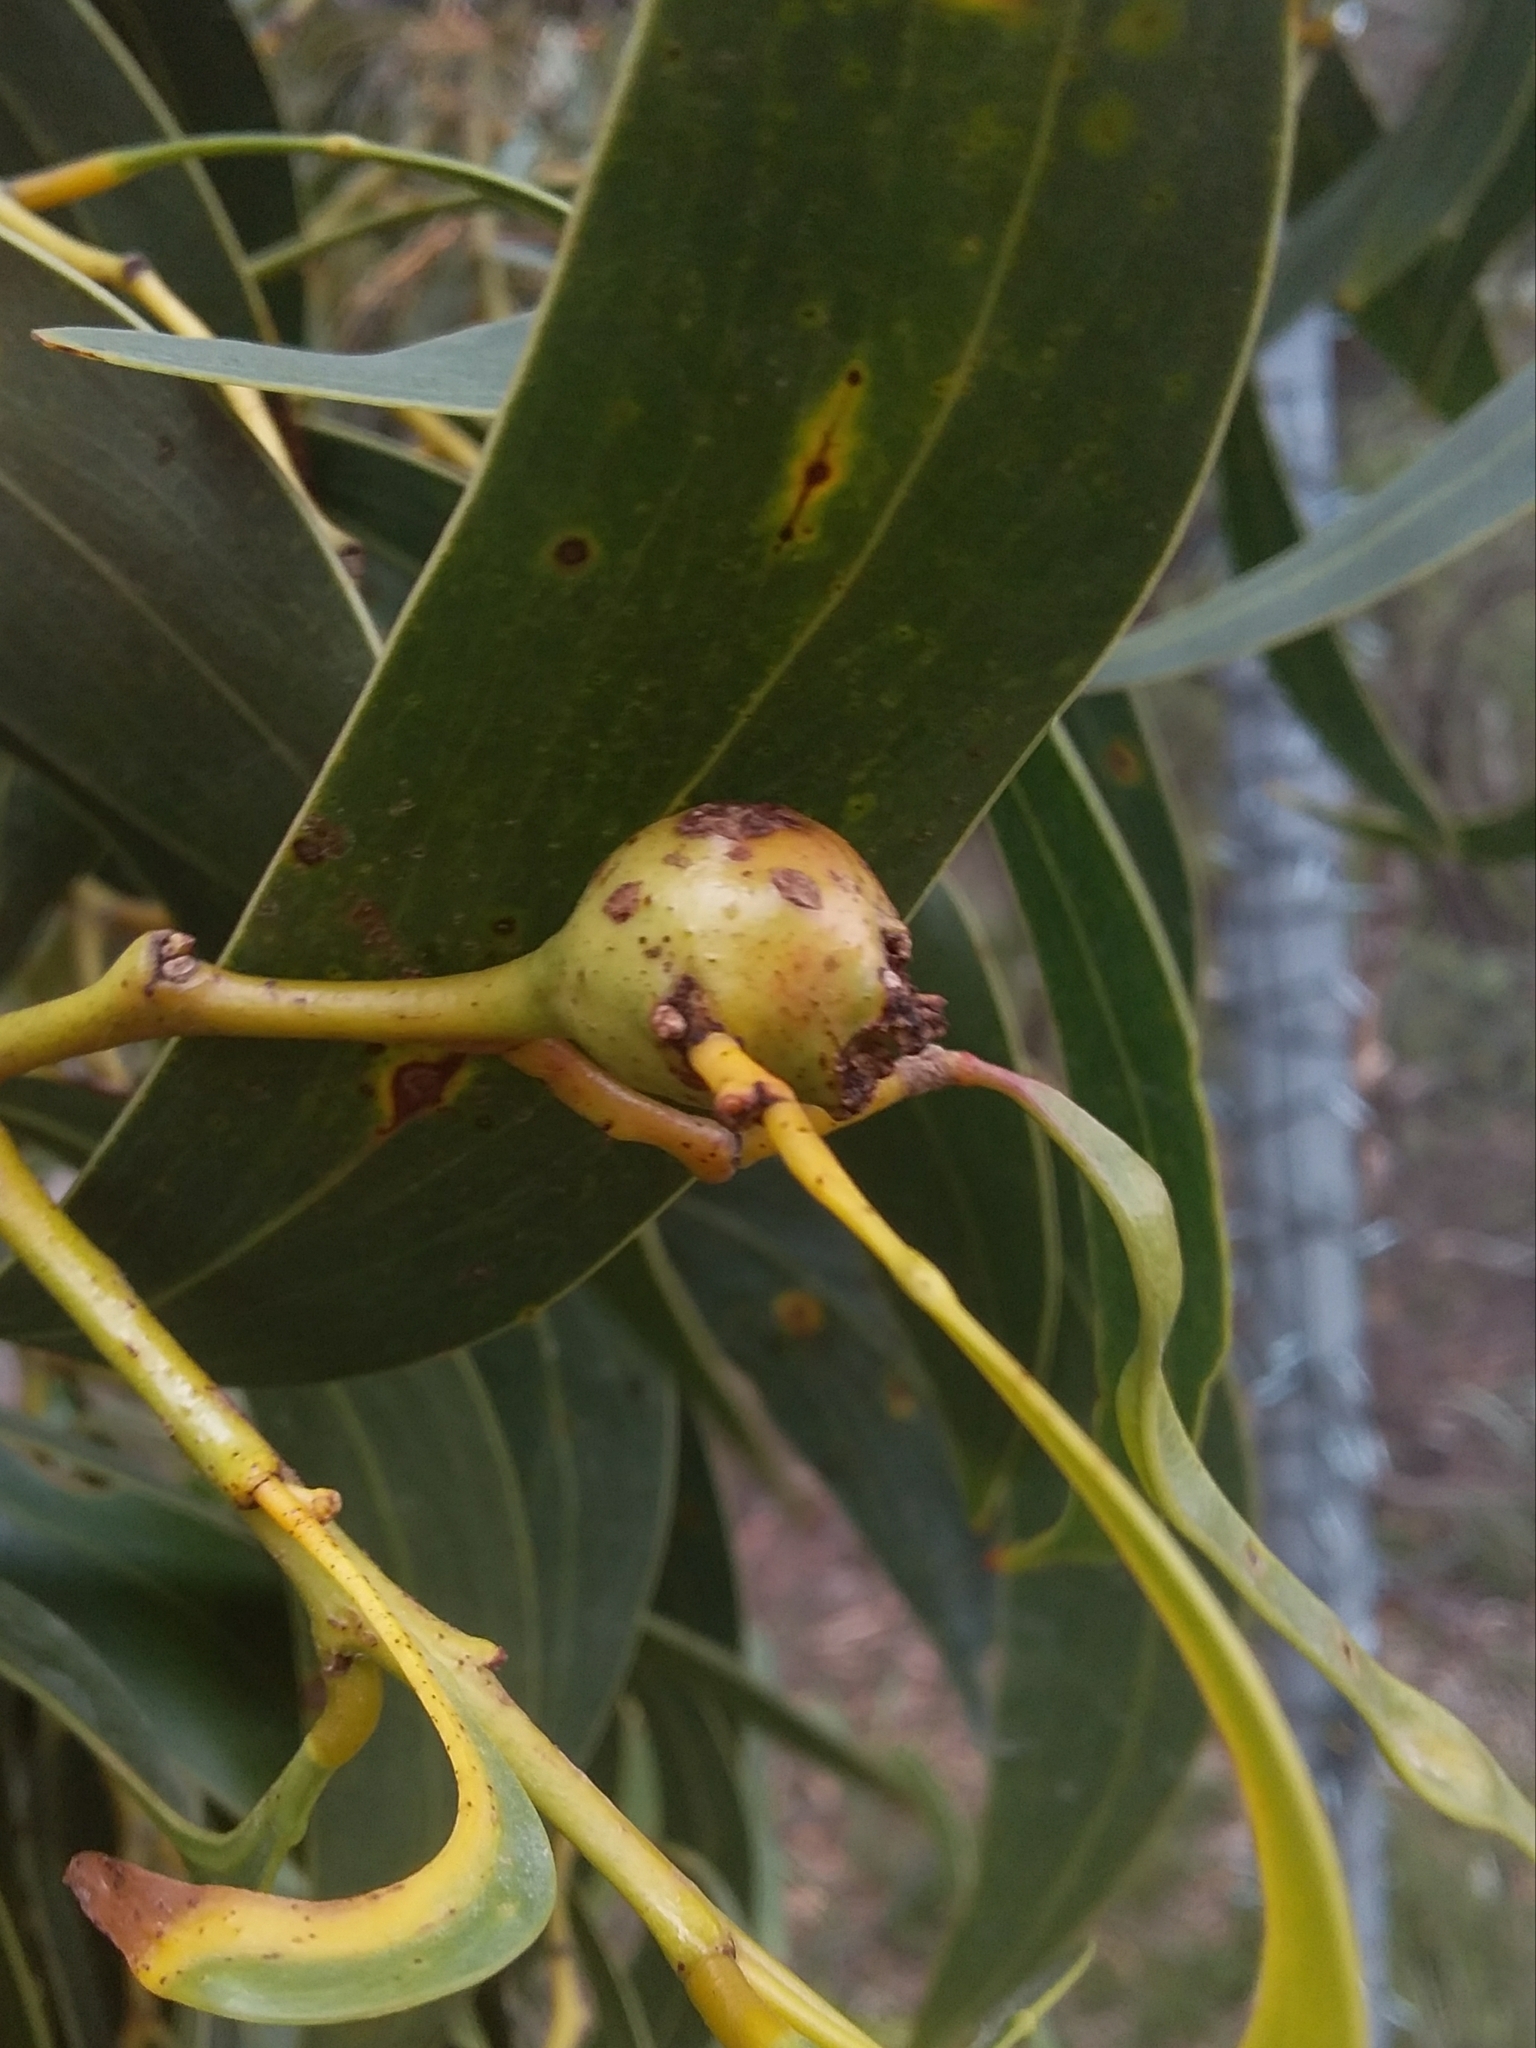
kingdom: Animalia
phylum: Arthropoda
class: Insecta
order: Hymenoptera
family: Pteromalidae
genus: Trichilogaster
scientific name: Trichilogaster signiventris
